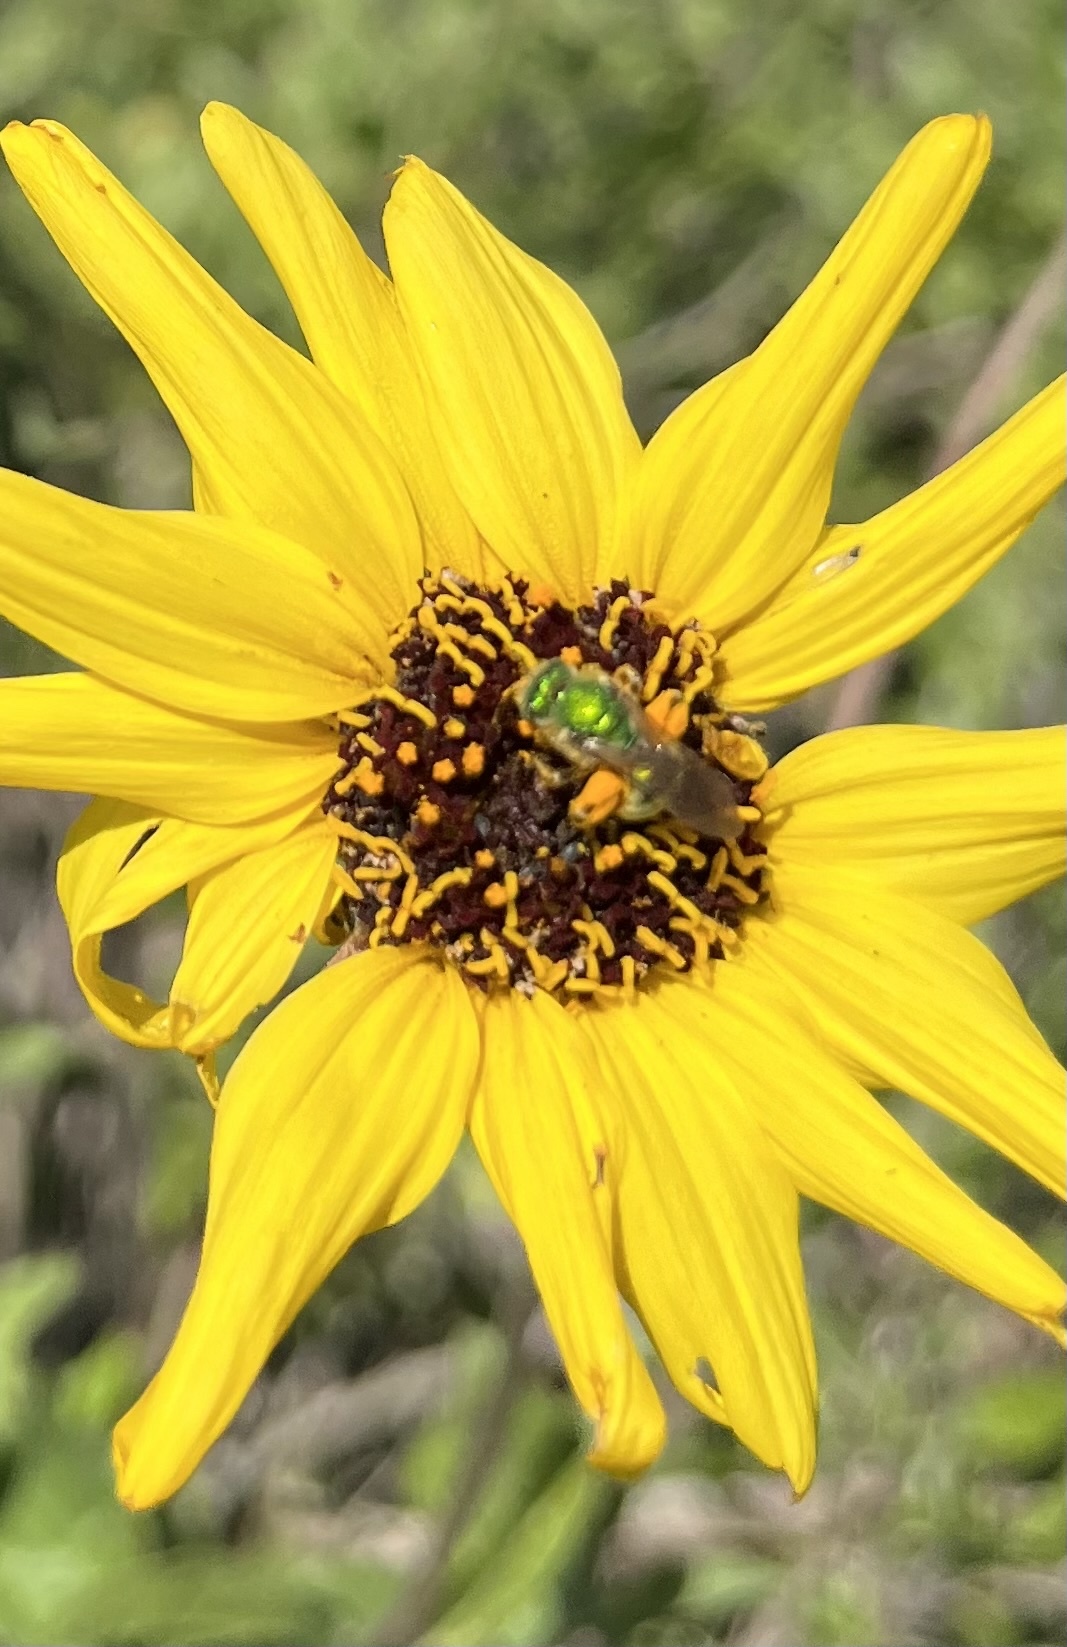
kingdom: Animalia
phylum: Arthropoda
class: Insecta
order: Hymenoptera
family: Halictidae
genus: Agapostemon
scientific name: Agapostemon texanus
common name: Texas striped sweat bee
